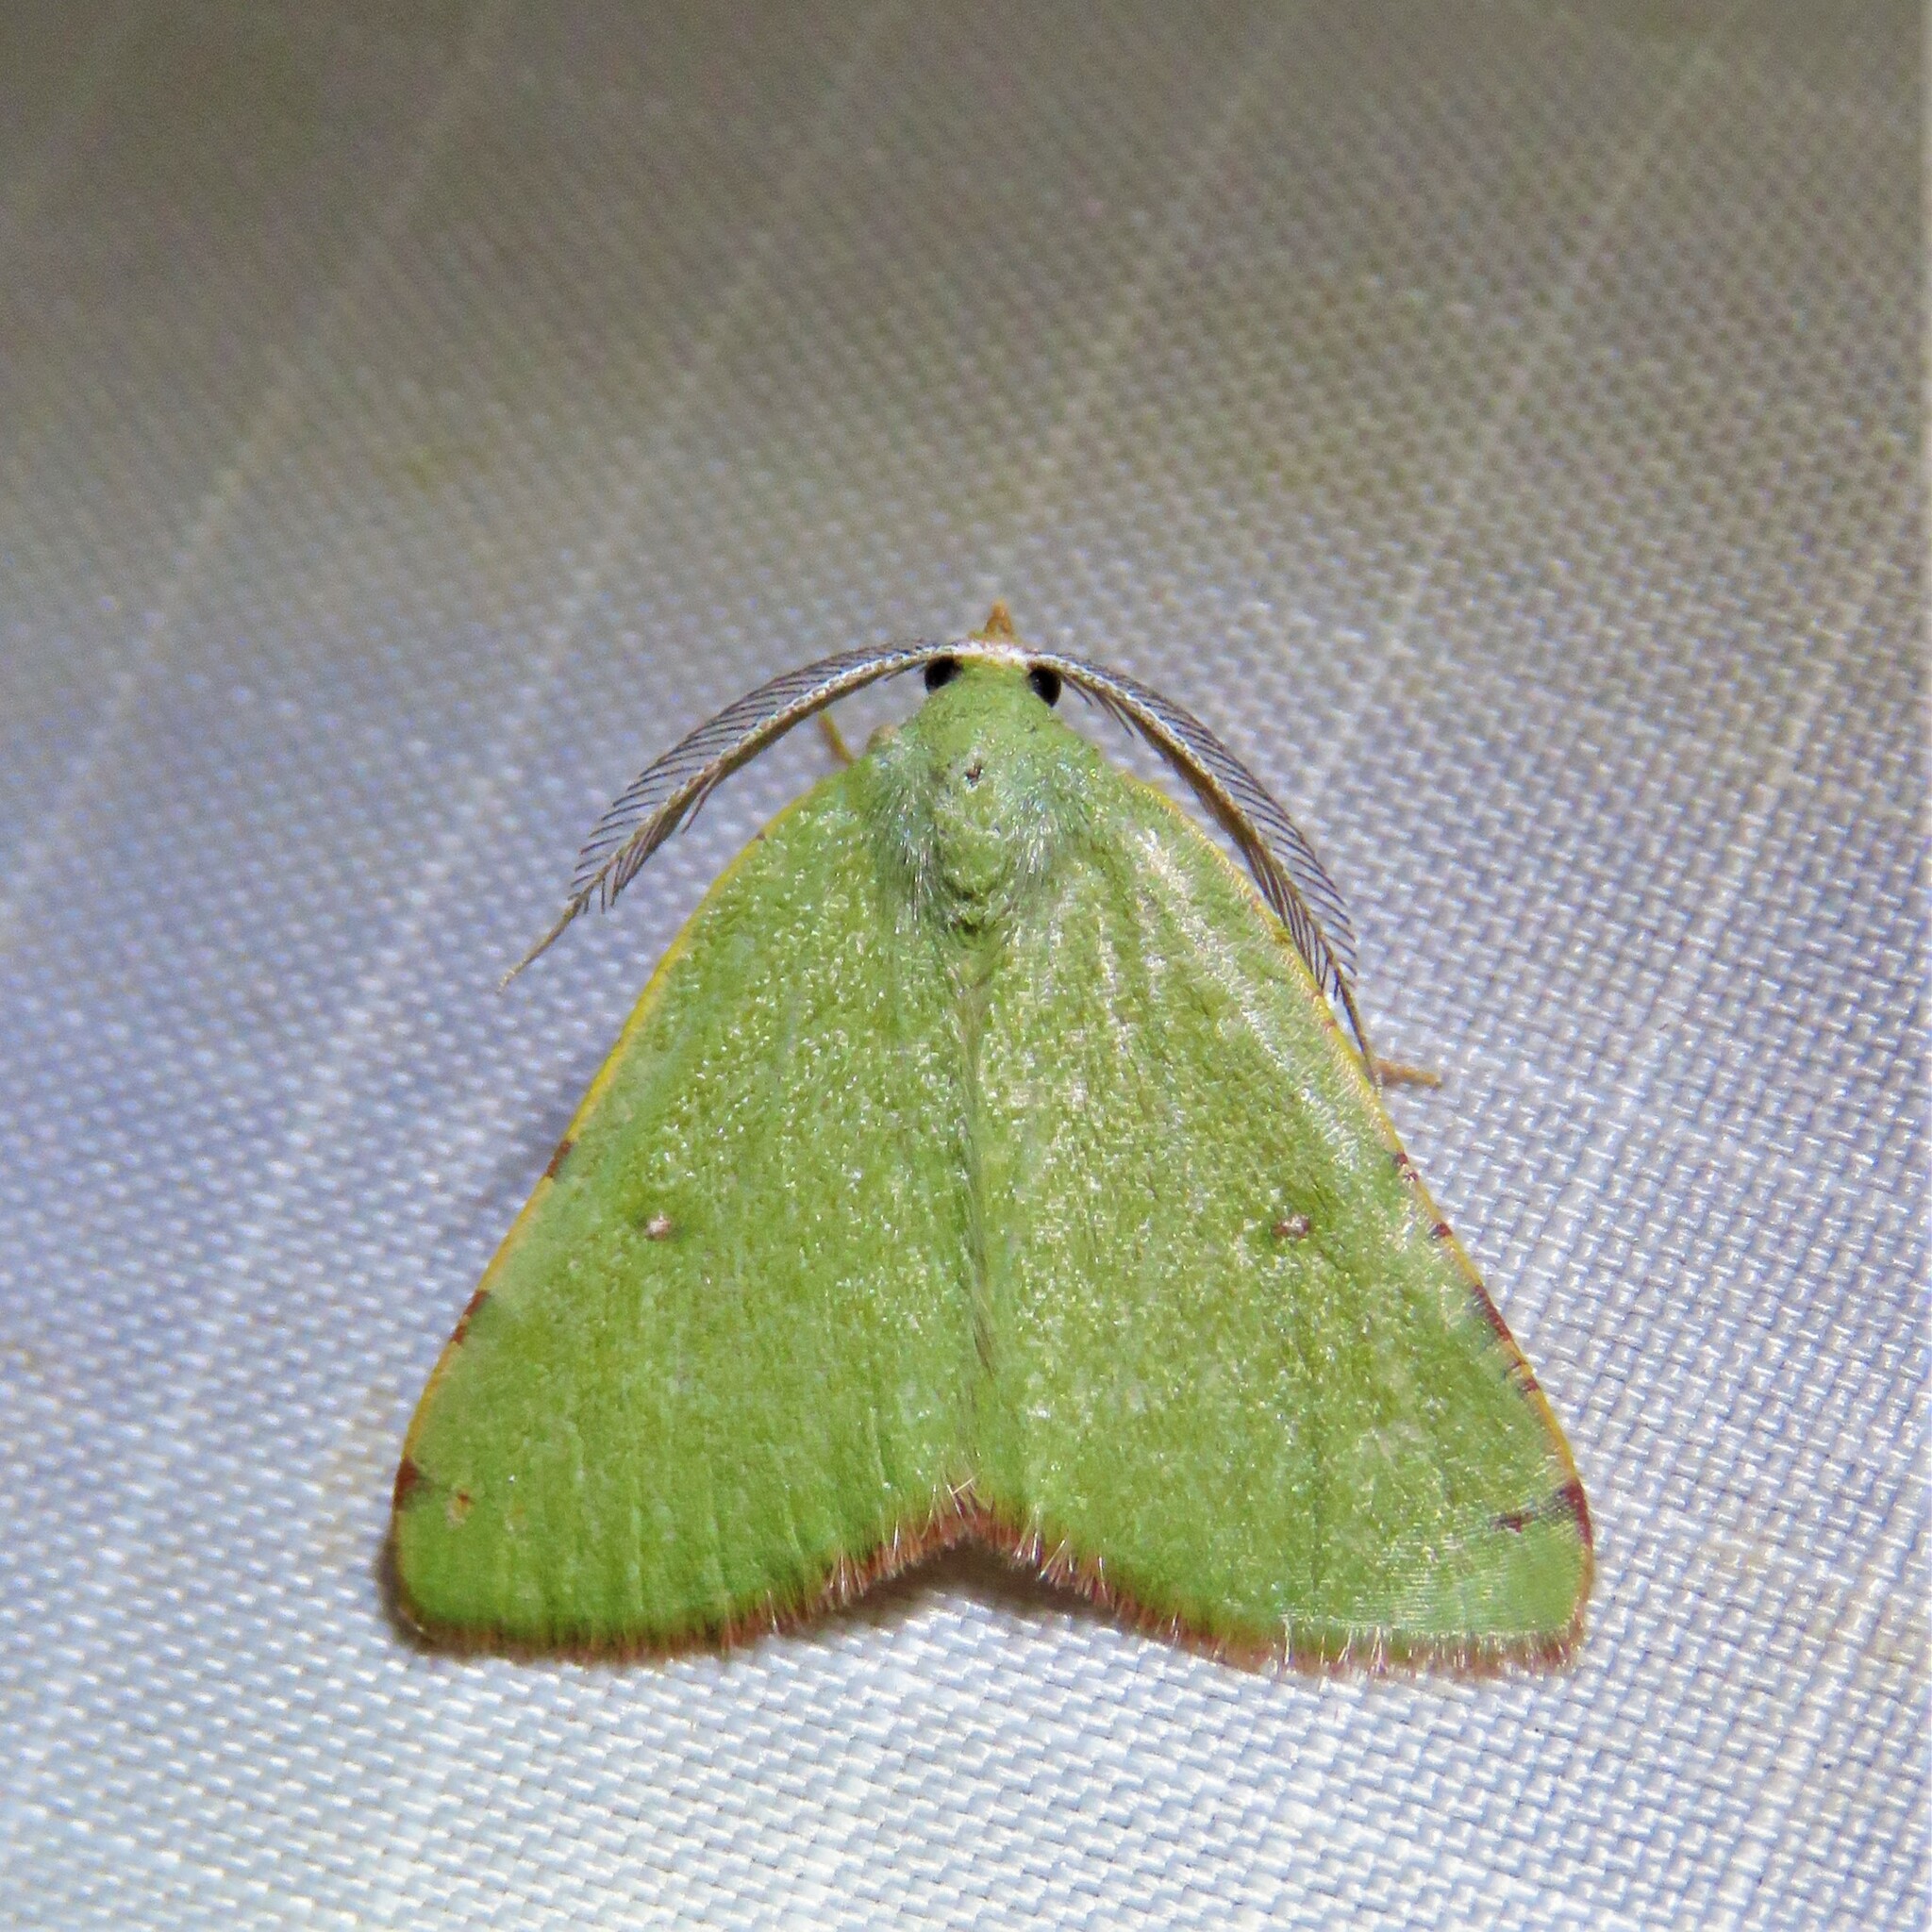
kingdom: Animalia
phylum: Arthropoda
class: Insecta
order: Lepidoptera
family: Geometridae
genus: Chloraspilates
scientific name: Chloraspilates bicoloraria
